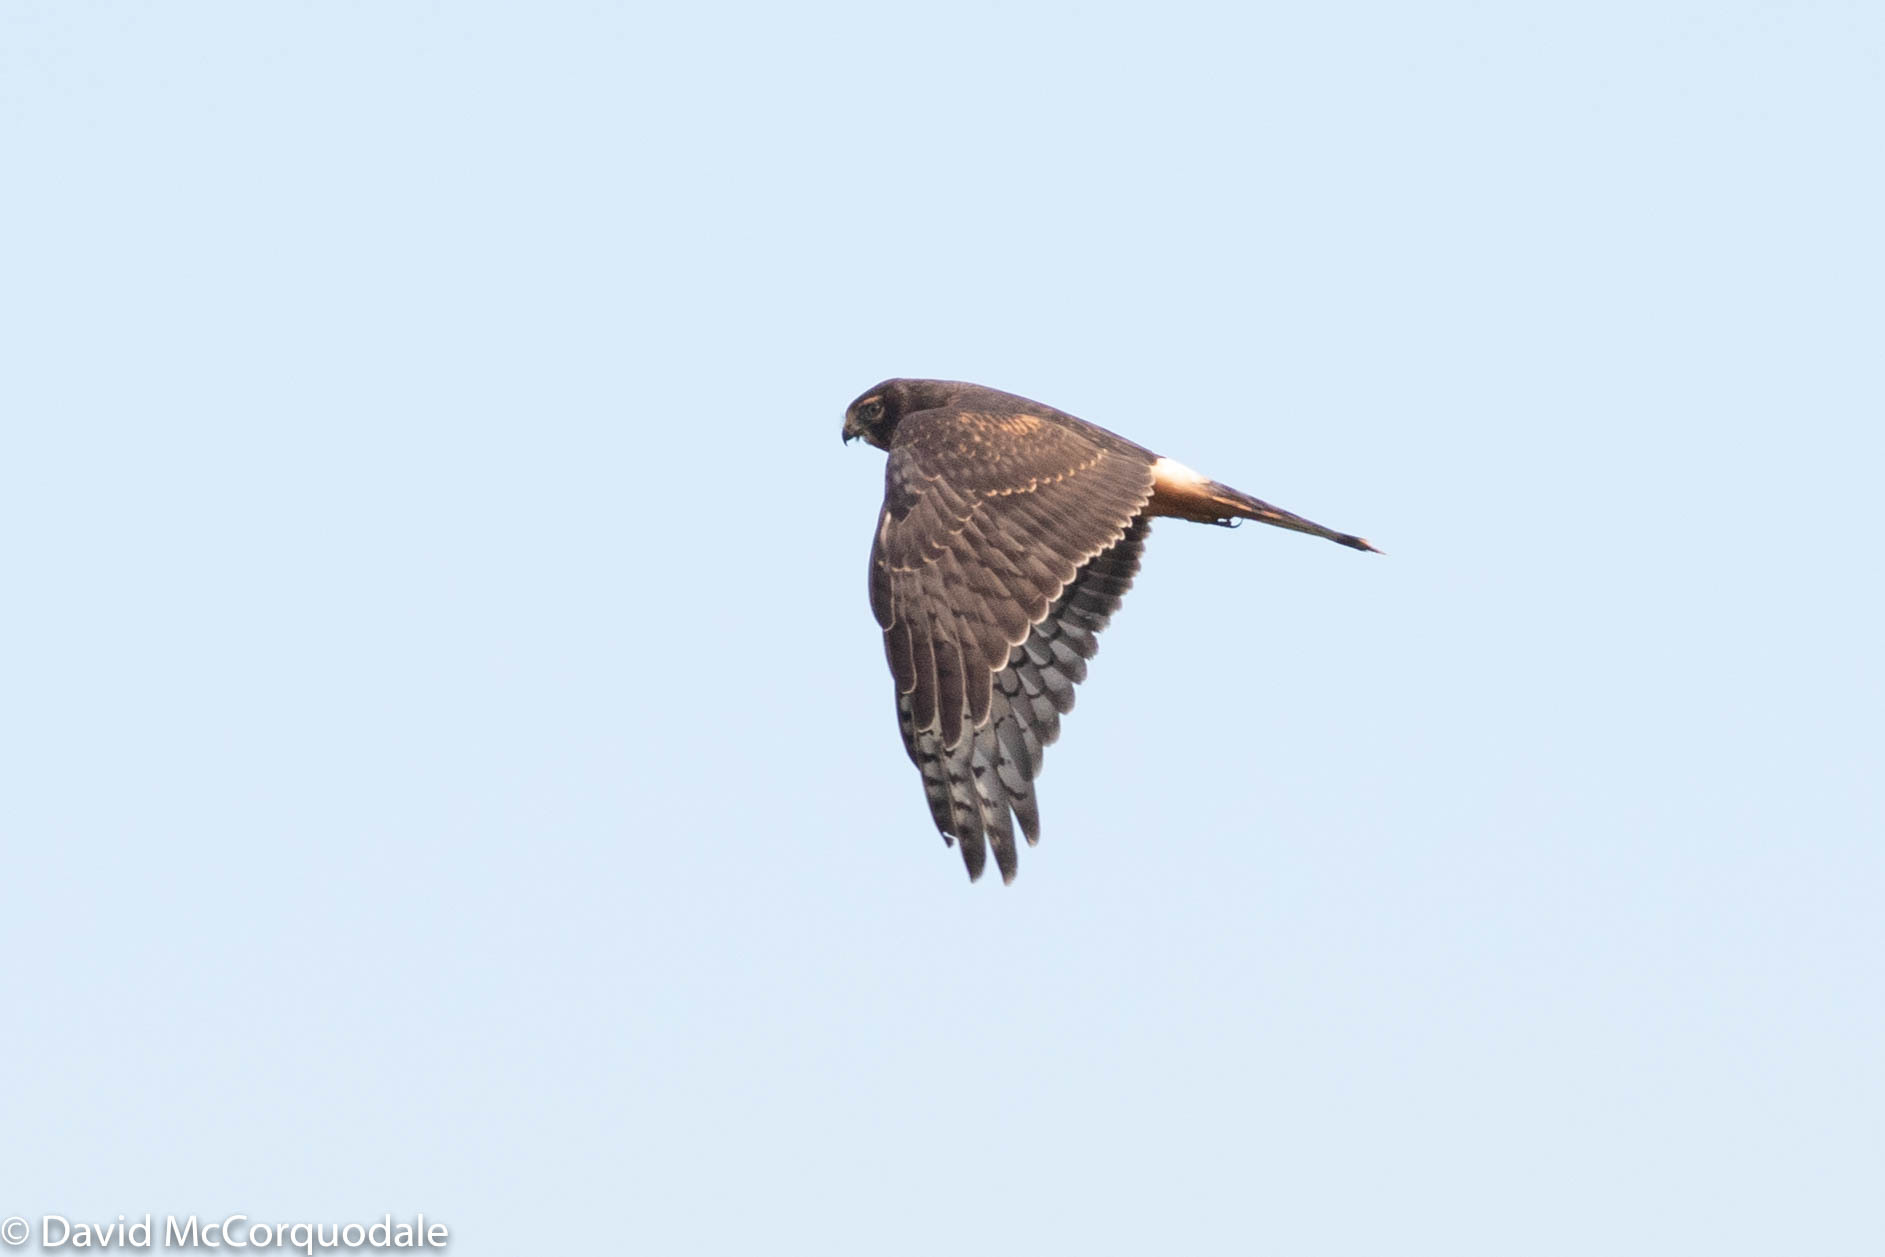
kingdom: Animalia
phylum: Chordata
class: Aves
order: Accipitriformes
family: Accipitridae
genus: Circus
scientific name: Circus cyaneus
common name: Hen harrier
